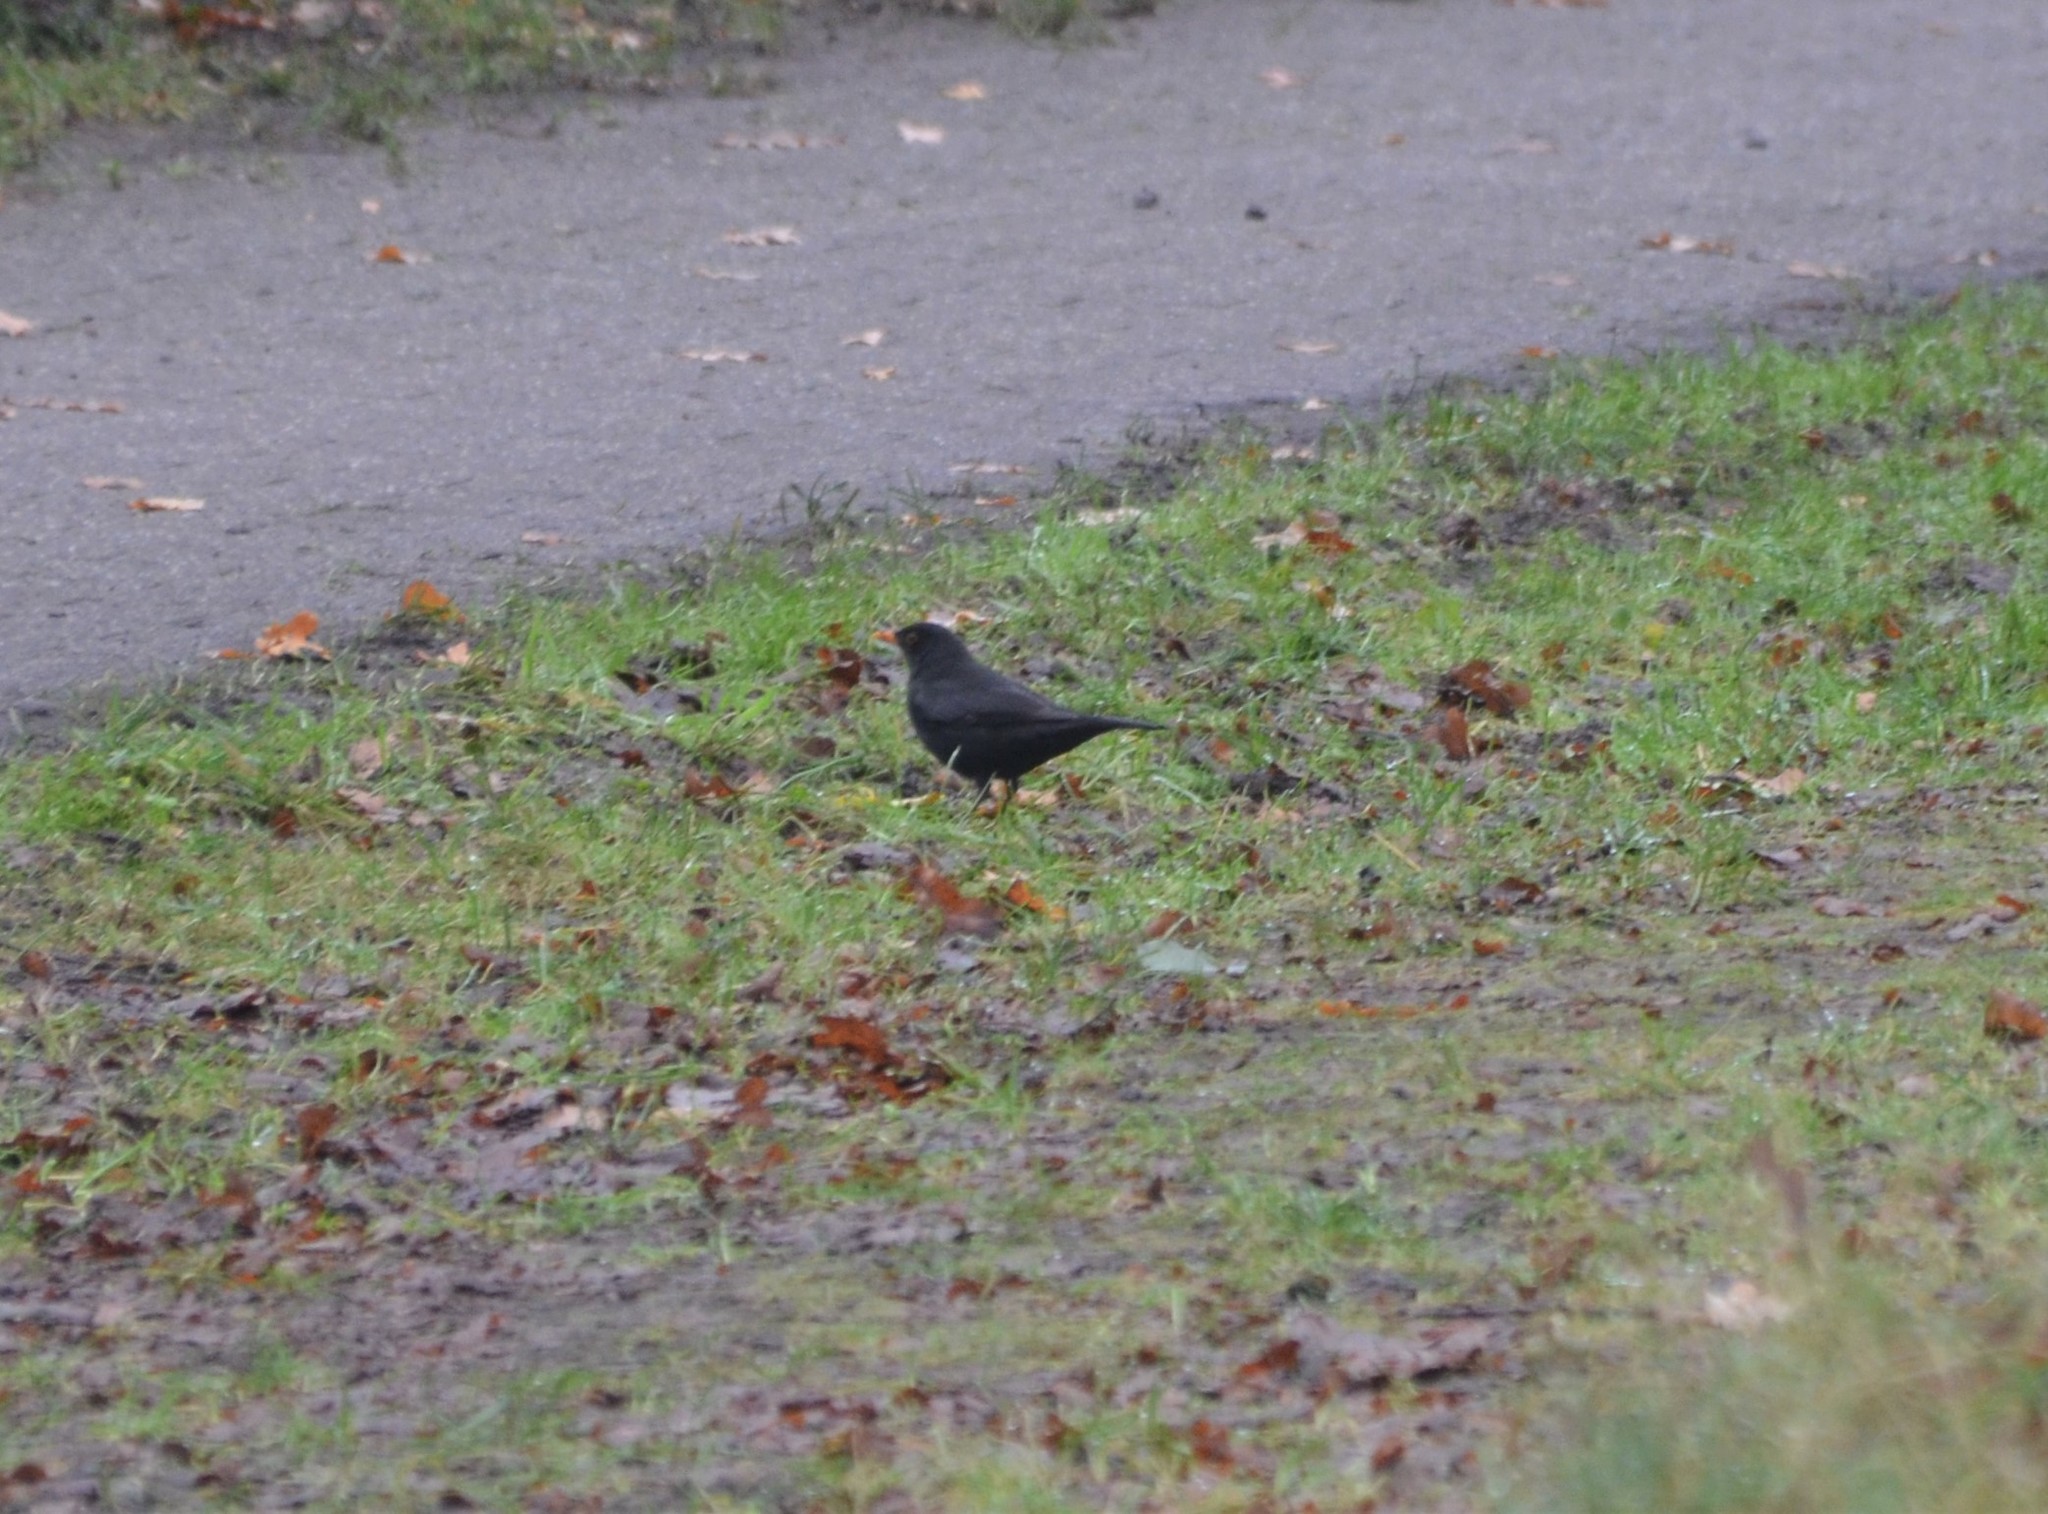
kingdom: Animalia
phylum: Chordata
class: Aves
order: Passeriformes
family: Turdidae
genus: Turdus
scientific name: Turdus merula
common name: Common blackbird
